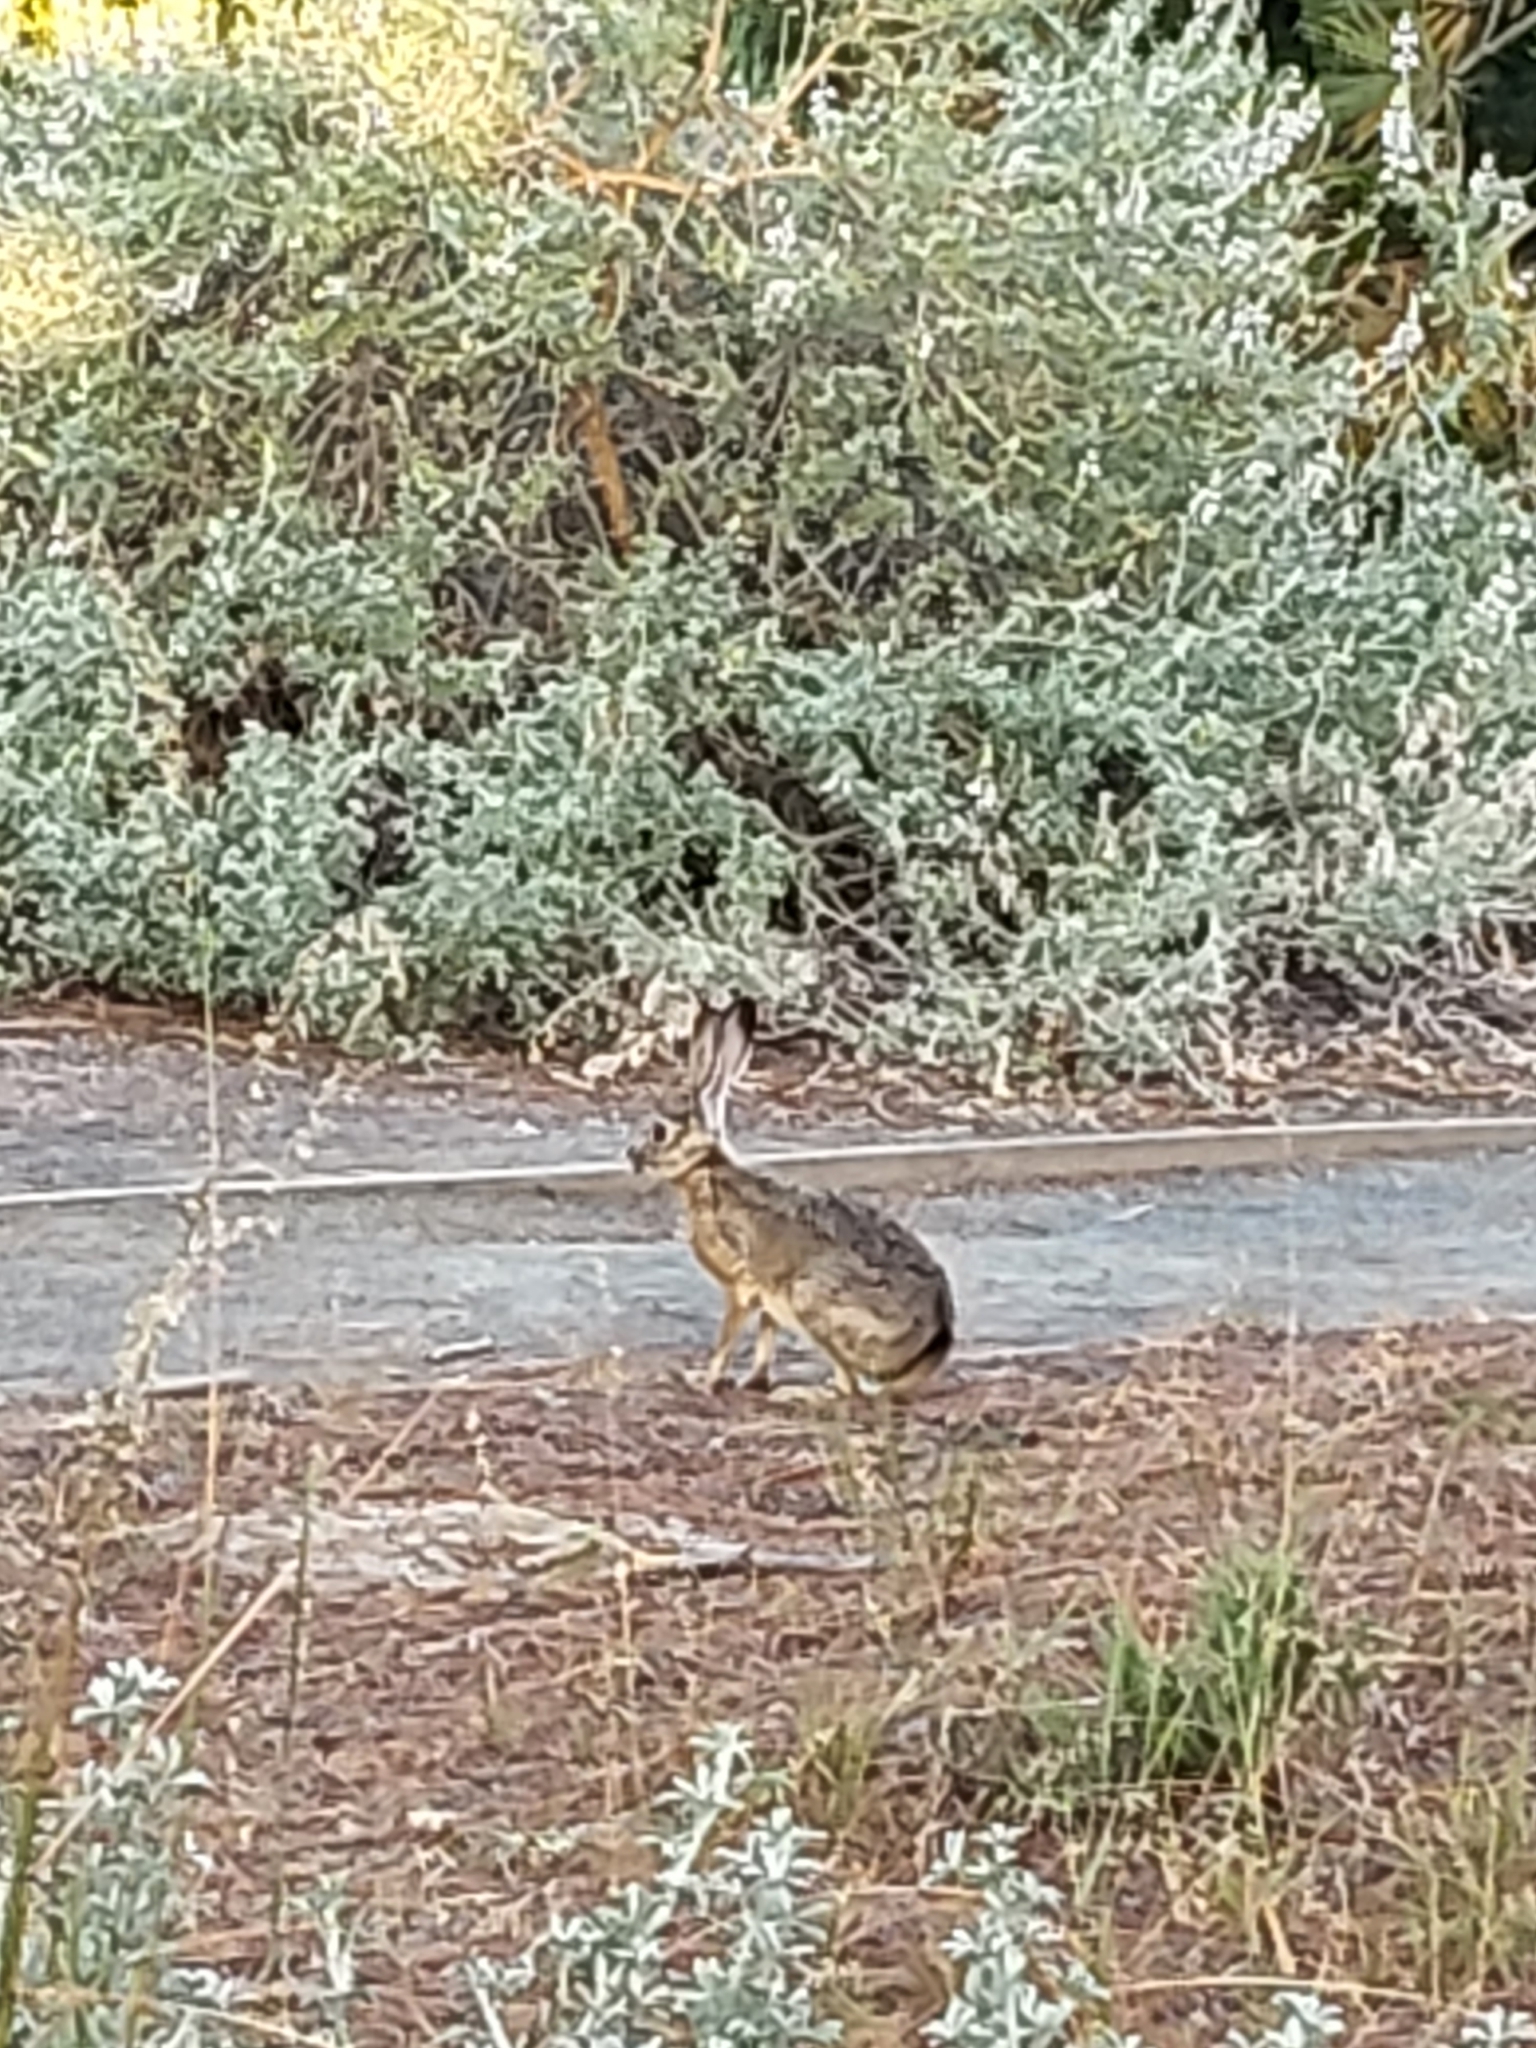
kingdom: Animalia
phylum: Chordata
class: Mammalia
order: Lagomorpha
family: Leporidae
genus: Lepus
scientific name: Lepus californicus
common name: Black-tailed jackrabbit
